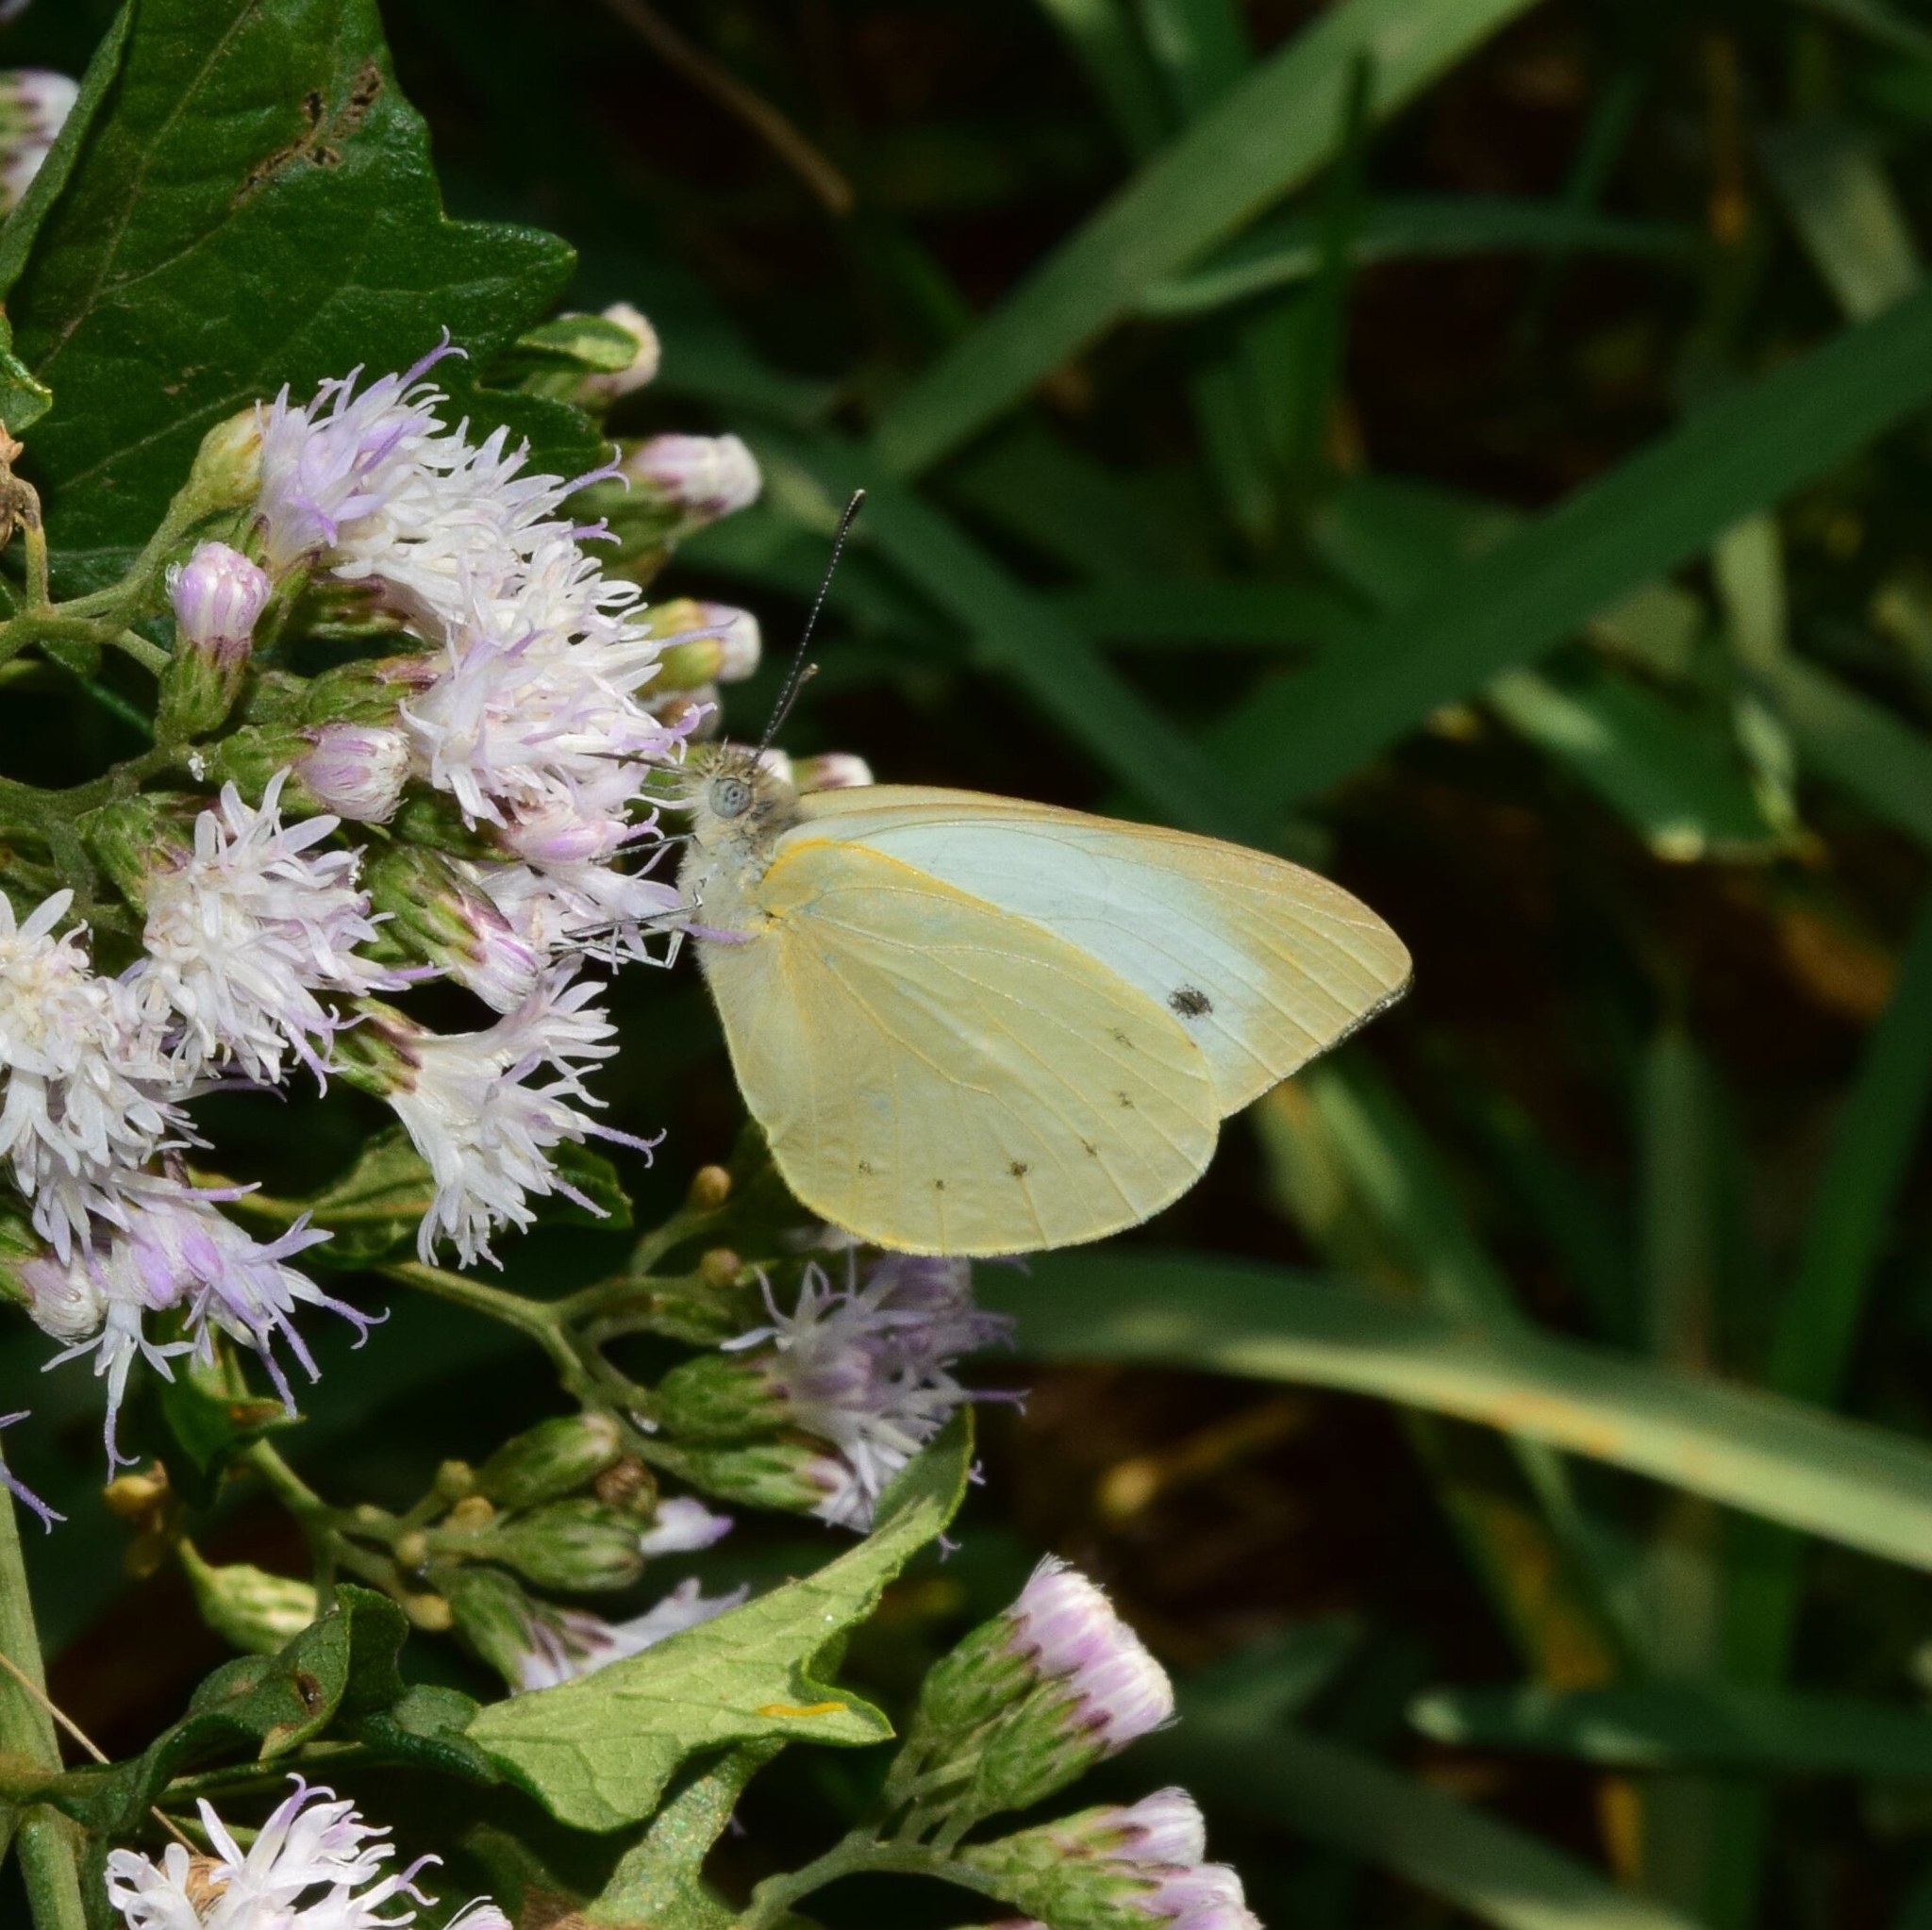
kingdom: Animalia
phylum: Arthropoda
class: Insecta
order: Lepidoptera
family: Pieridae
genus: Dixeia
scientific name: Dixeia pigea
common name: Ant-heap small white
